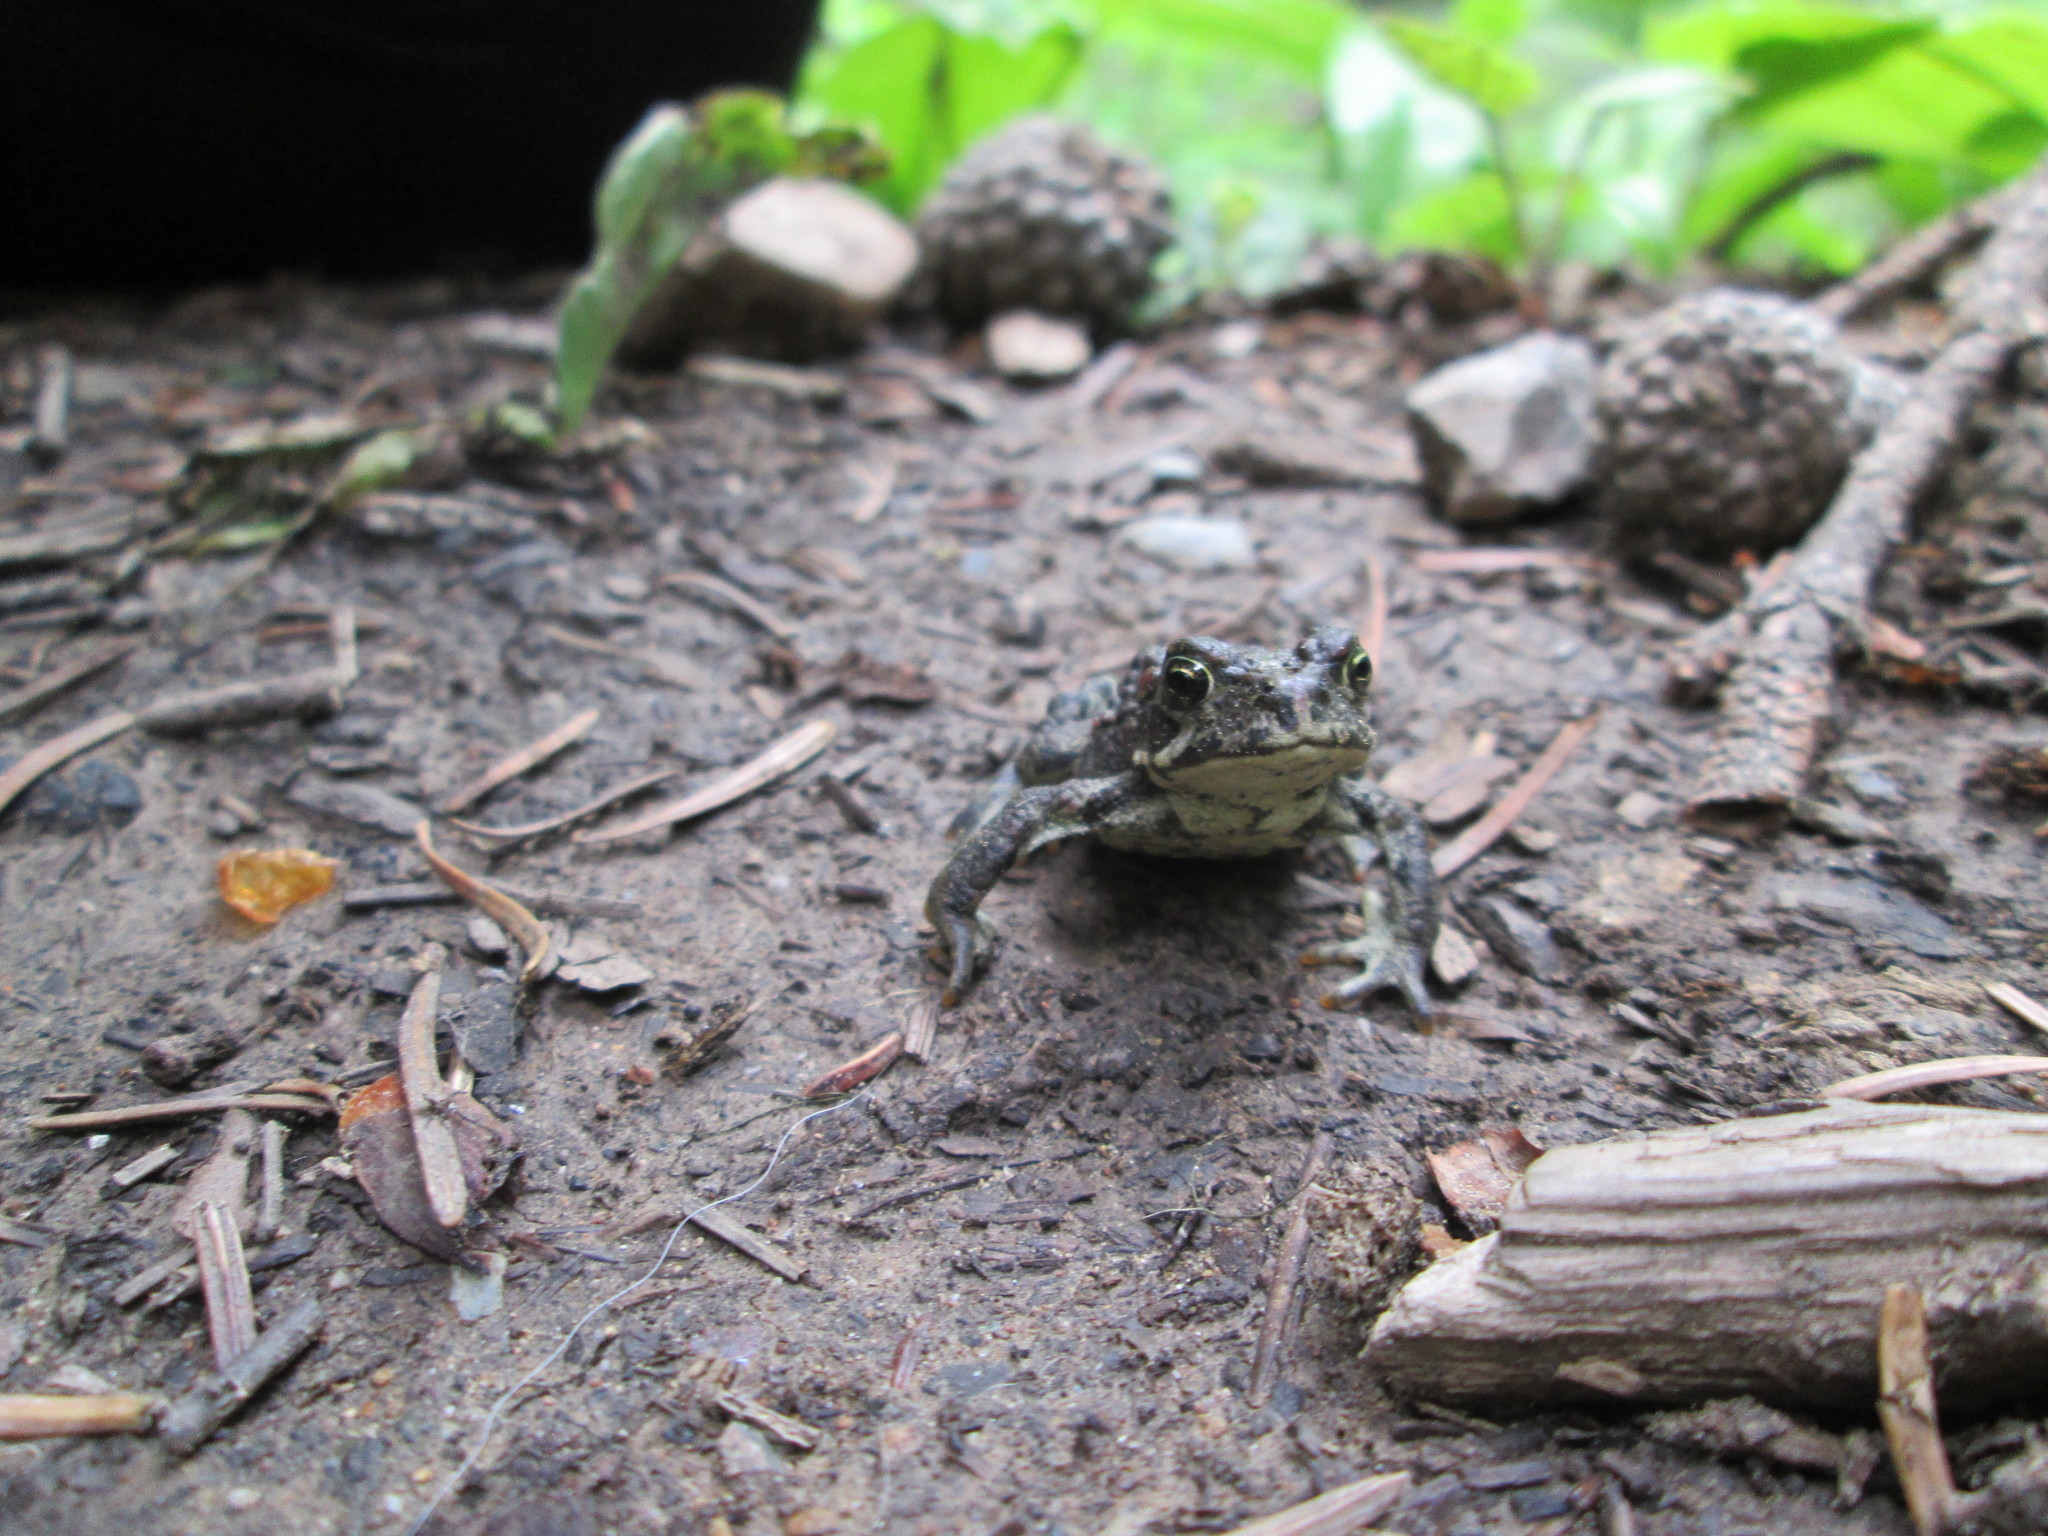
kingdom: Animalia
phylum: Chordata
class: Amphibia
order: Anura
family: Bufonidae
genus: Anaxyrus
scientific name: Anaxyrus boreas
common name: Western toad
